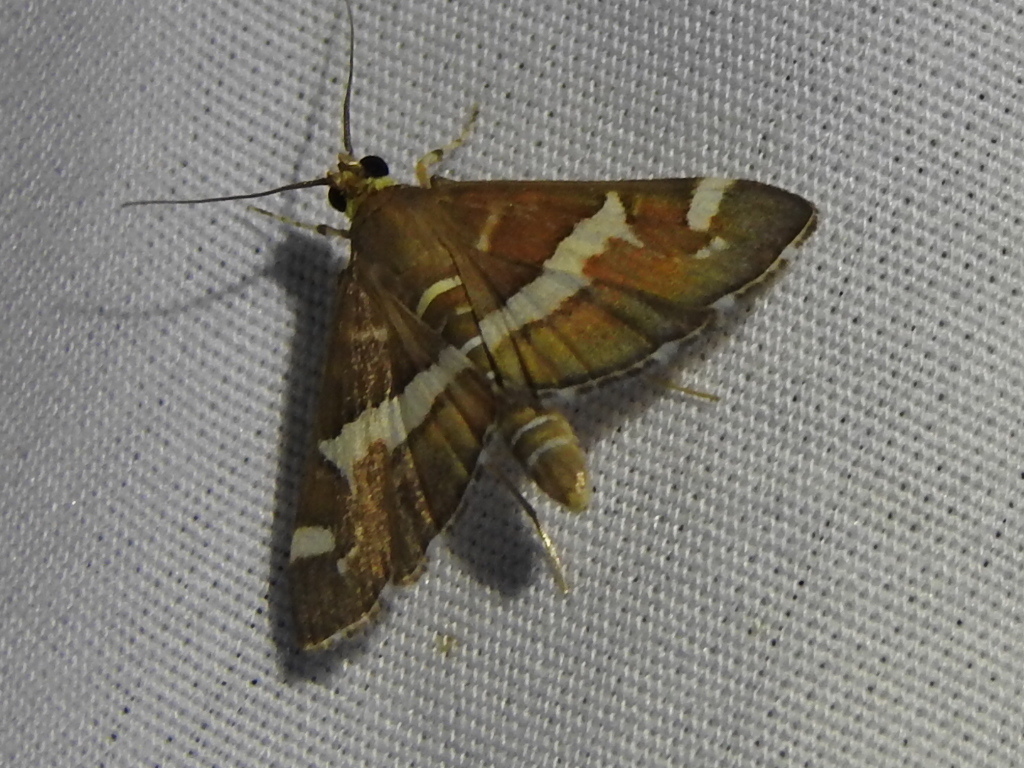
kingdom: Animalia
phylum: Arthropoda
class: Insecta
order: Lepidoptera
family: Crambidae
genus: Spoladea
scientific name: Spoladea recurvalis
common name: Beet webworm moth
